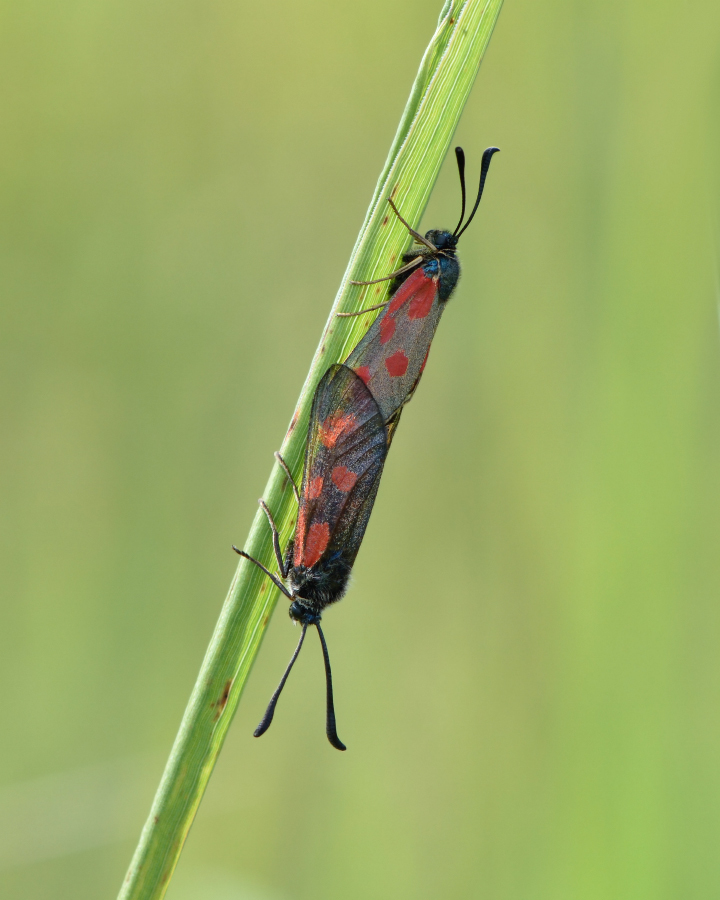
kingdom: Animalia
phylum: Arthropoda
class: Insecta
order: Lepidoptera
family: Zygaenidae
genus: Zygaena
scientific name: Zygaena loti
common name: Slender scotch burnet
